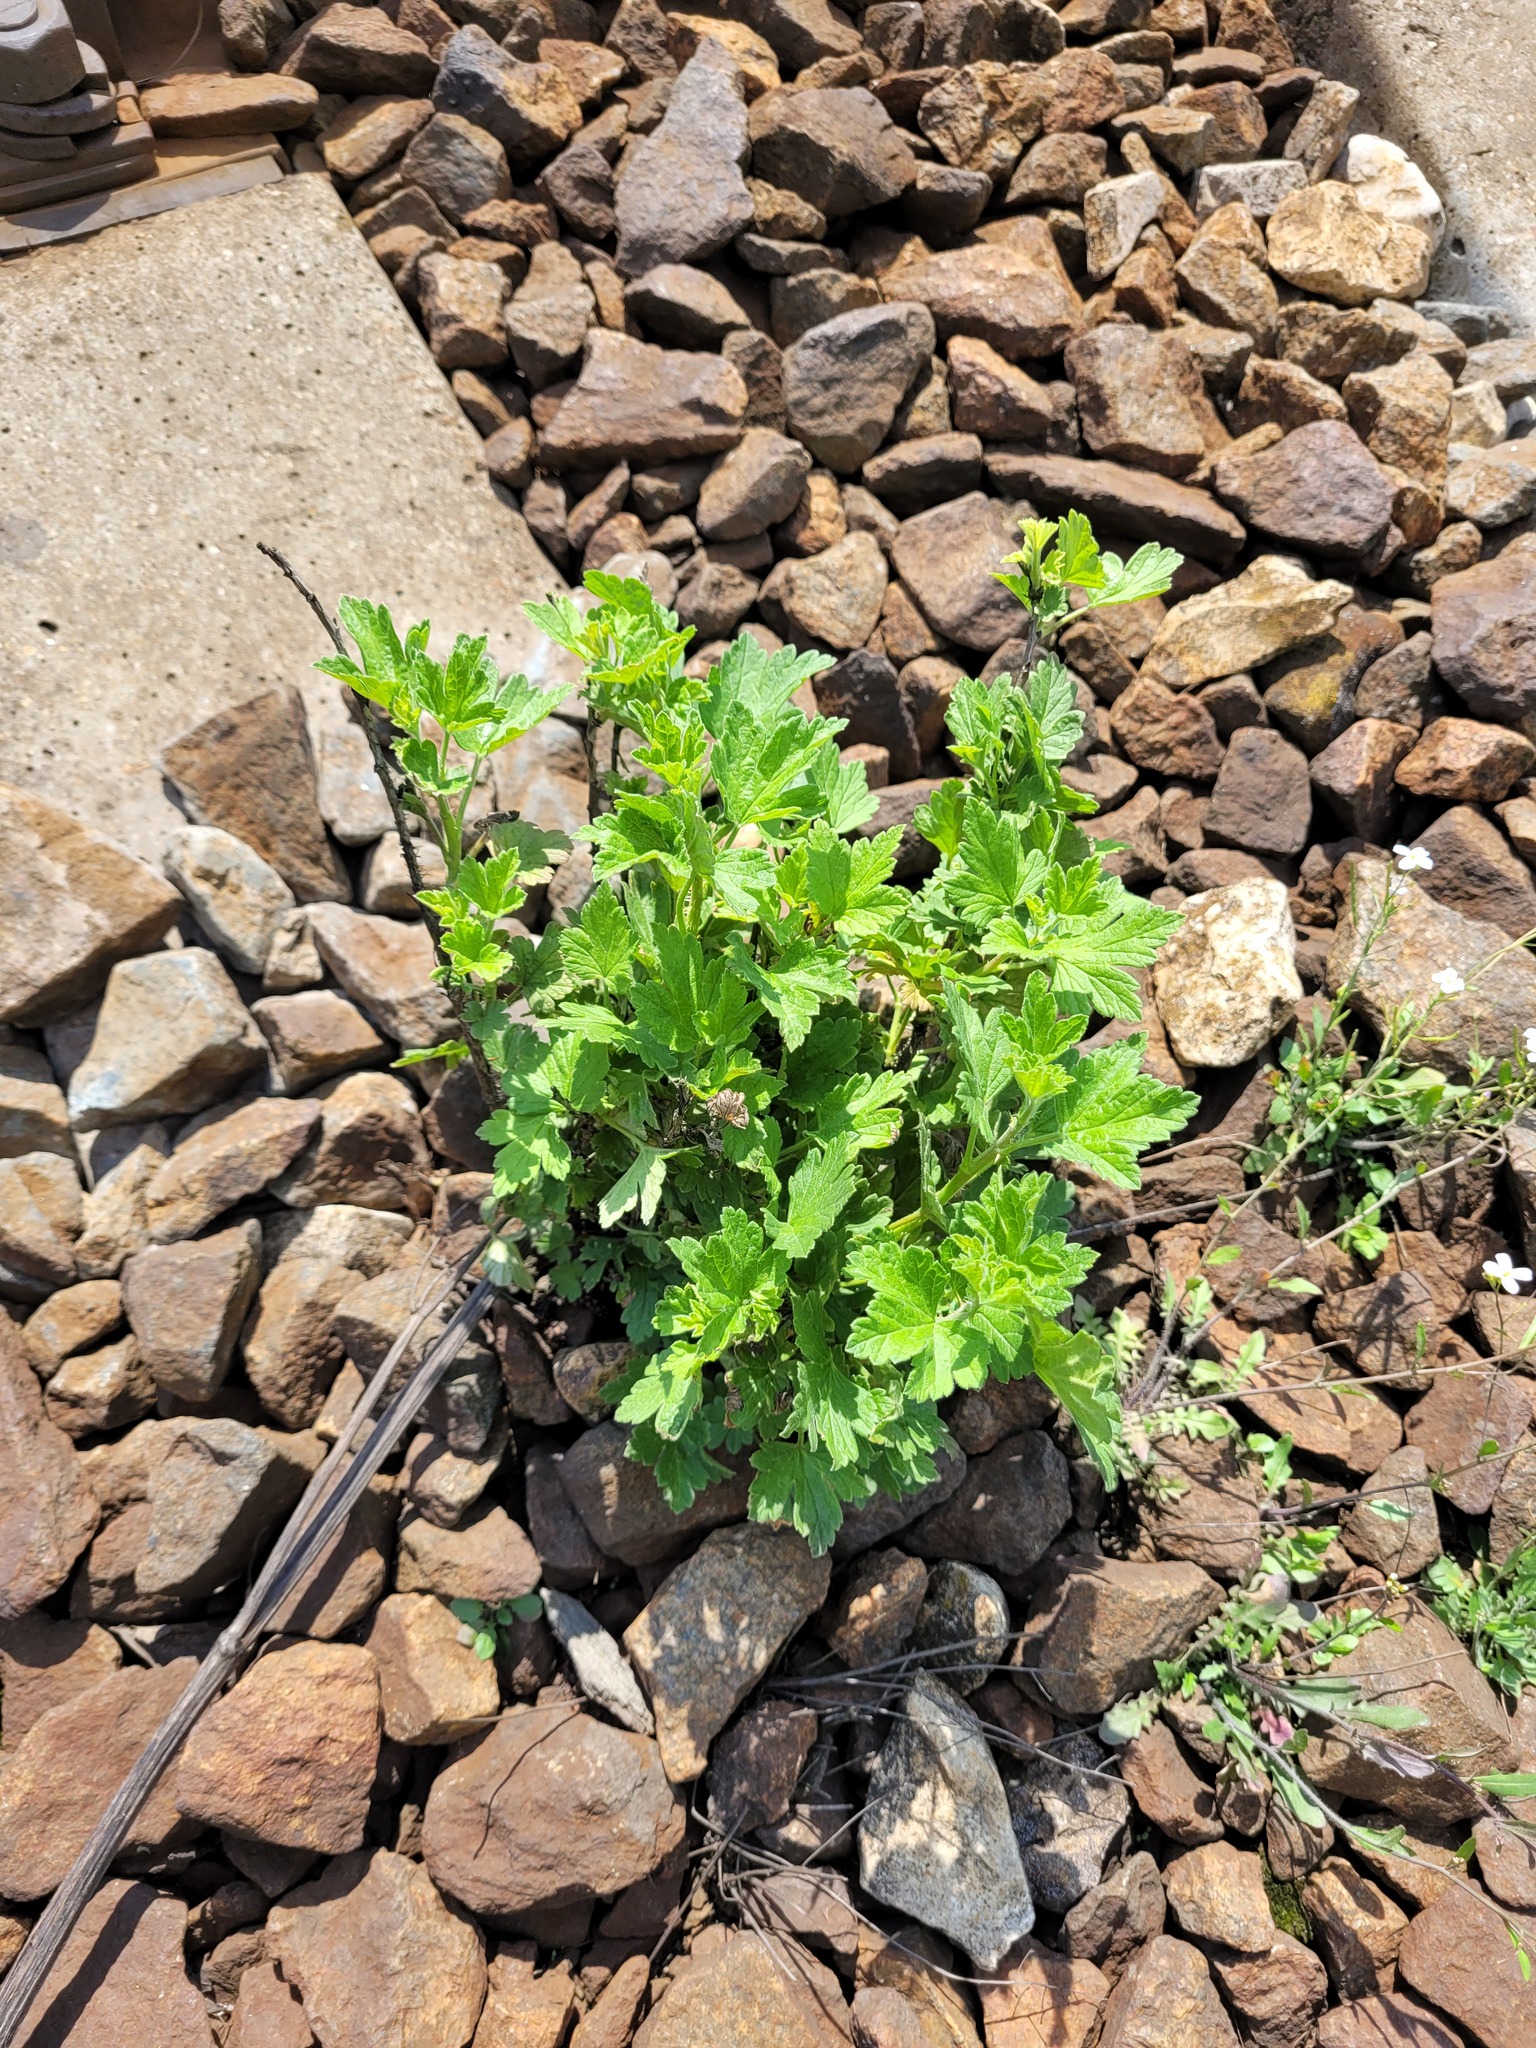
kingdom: Plantae
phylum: Tracheophyta
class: Magnoliopsida
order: Saxifragales
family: Grossulariaceae
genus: Ribes
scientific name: Ribes uva-crispa
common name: Gooseberry
